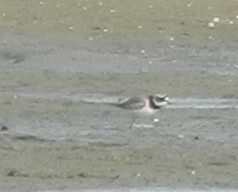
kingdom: Animalia
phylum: Chordata
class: Aves
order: Charadriiformes
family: Charadriidae
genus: Charadrius
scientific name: Charadrius hiaticula
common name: Common ringed plover
